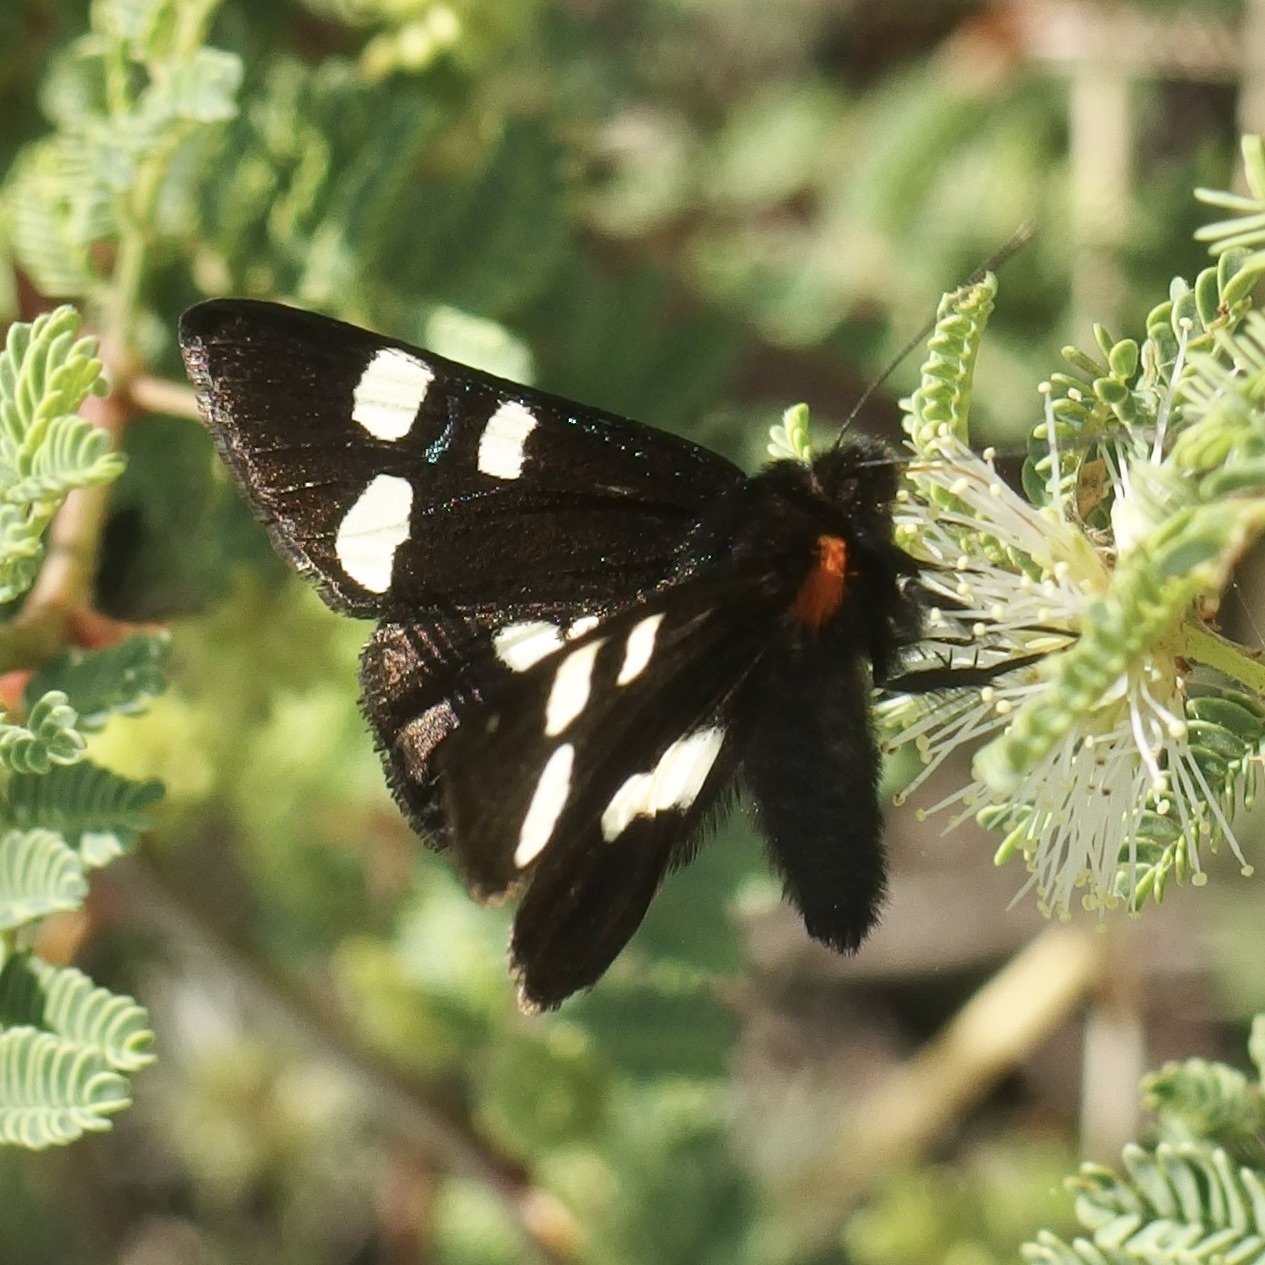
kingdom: Animalia
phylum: Arthropoda
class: Insecta
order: Lepidoptera
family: Noctuidae
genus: Alypiodes
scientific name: Alypiodes geronimo
